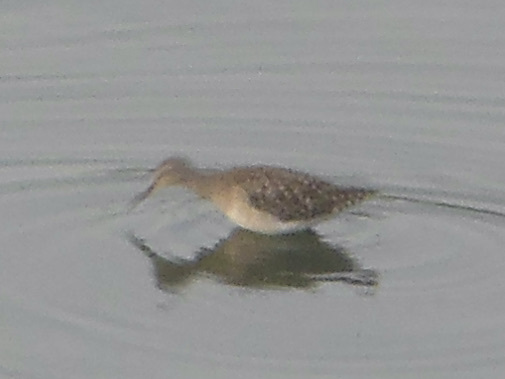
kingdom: Animalia
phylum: Chordata
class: Aves
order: Charadriiformes
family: Scolopacidae
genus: Tringa
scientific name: Tringa glareola
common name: Wood sandpiper
